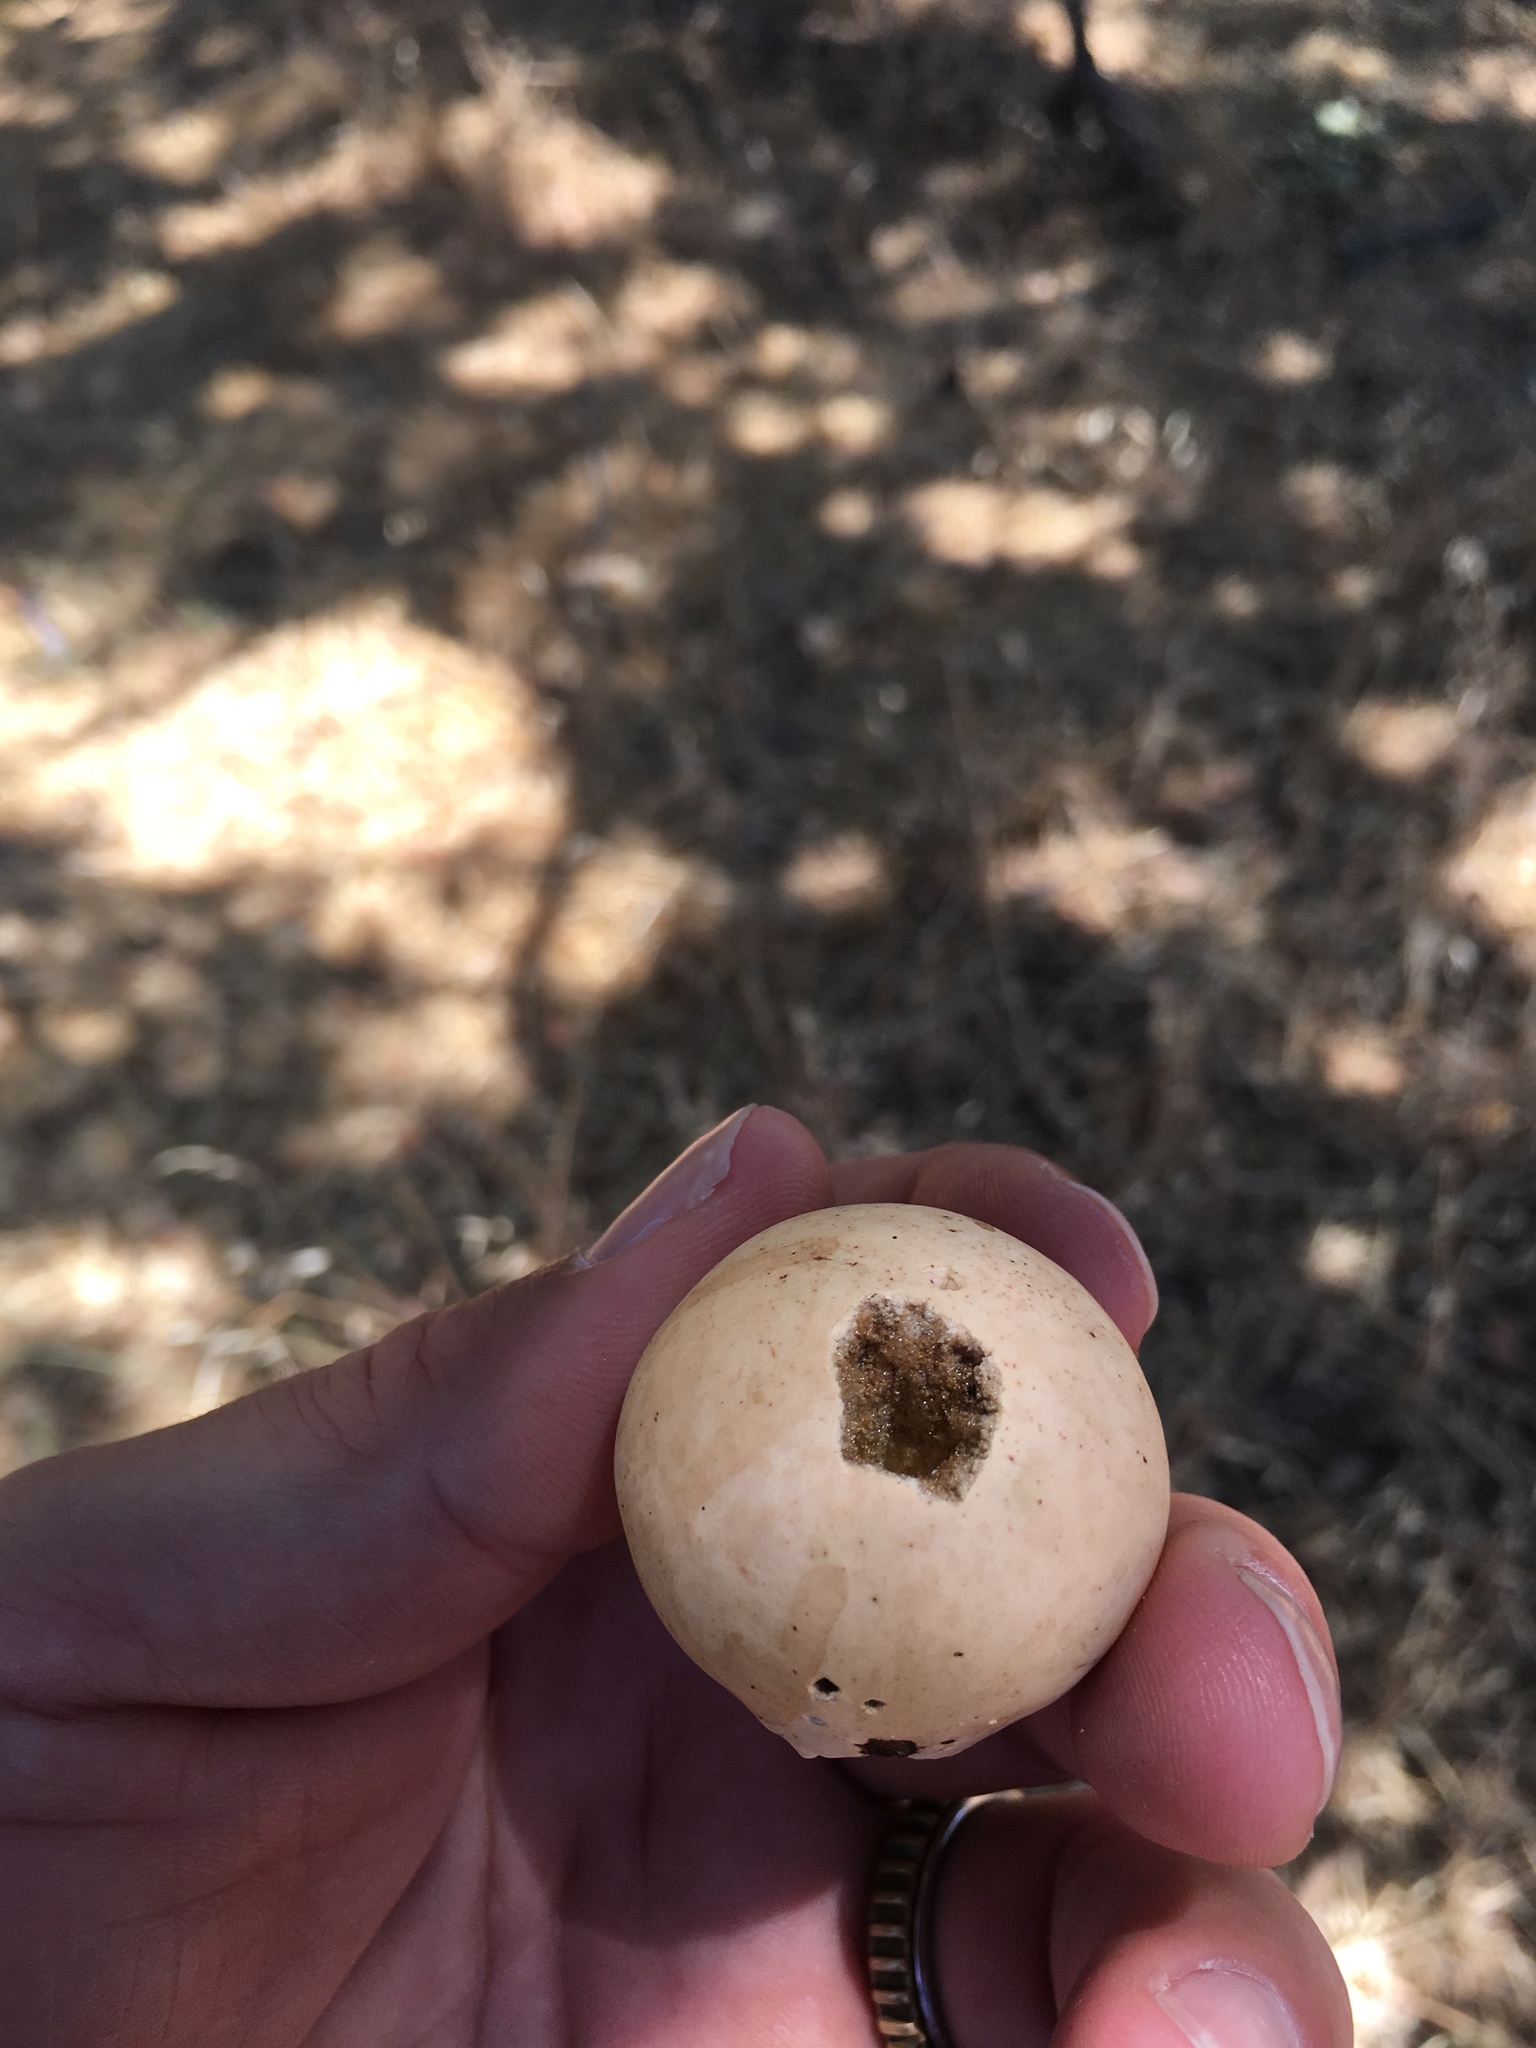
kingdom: Animalia
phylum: Arthropoda
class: Insecta
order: Hymenoptera
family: Cynipidae
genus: Andricus
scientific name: Andricus quercuscalifornicus
